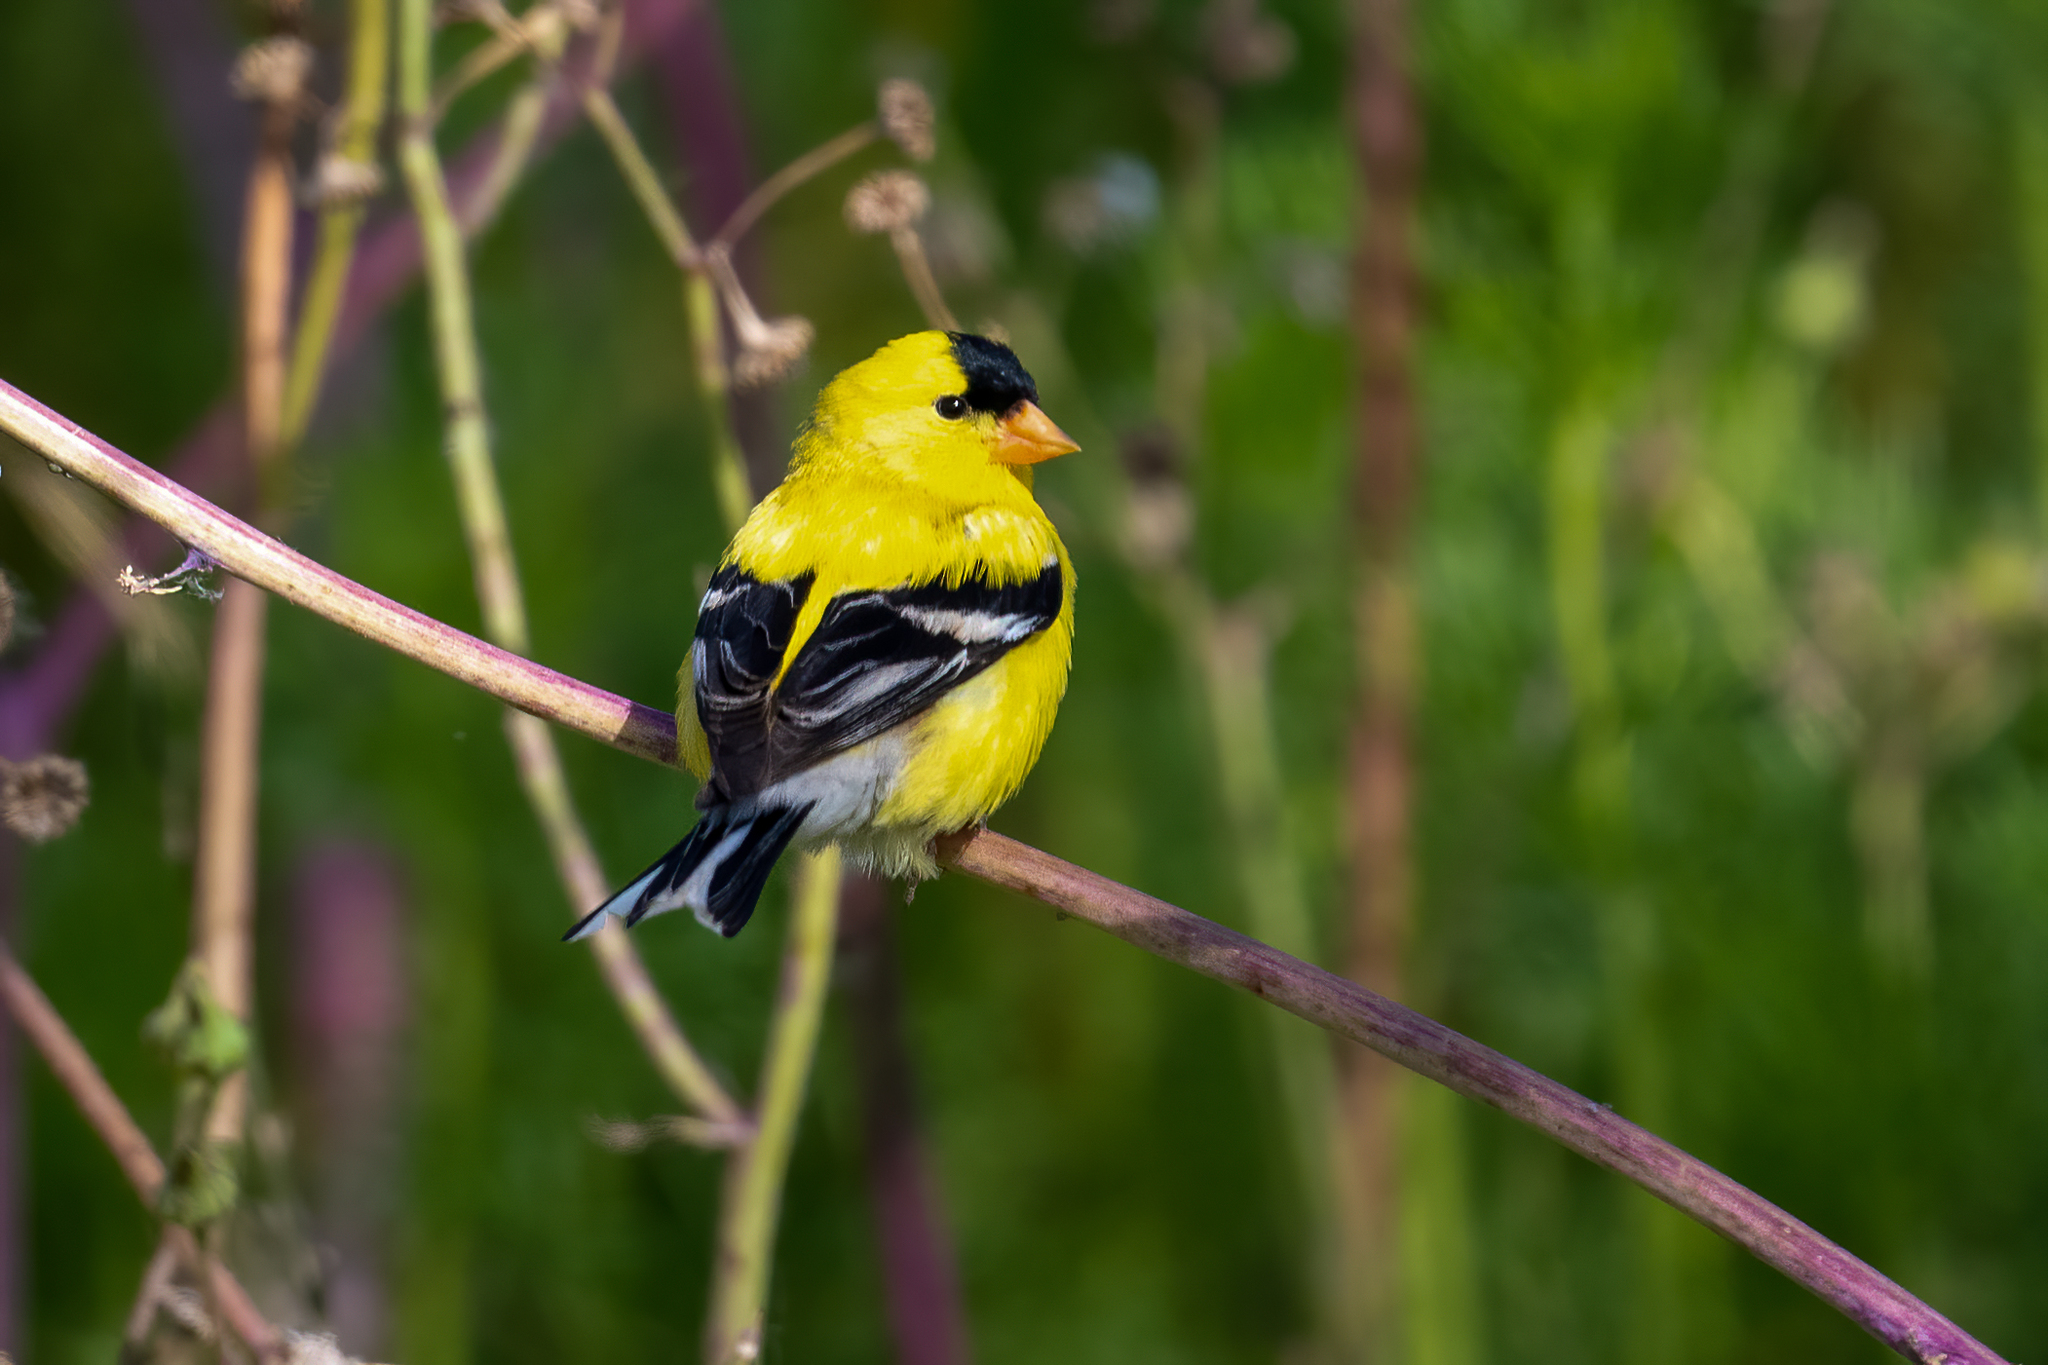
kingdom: Animalia
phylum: Chordata
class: Aves
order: Passeriformes
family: Fringillidae
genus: Spinus
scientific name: Spinus tristis
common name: American goldfinch
